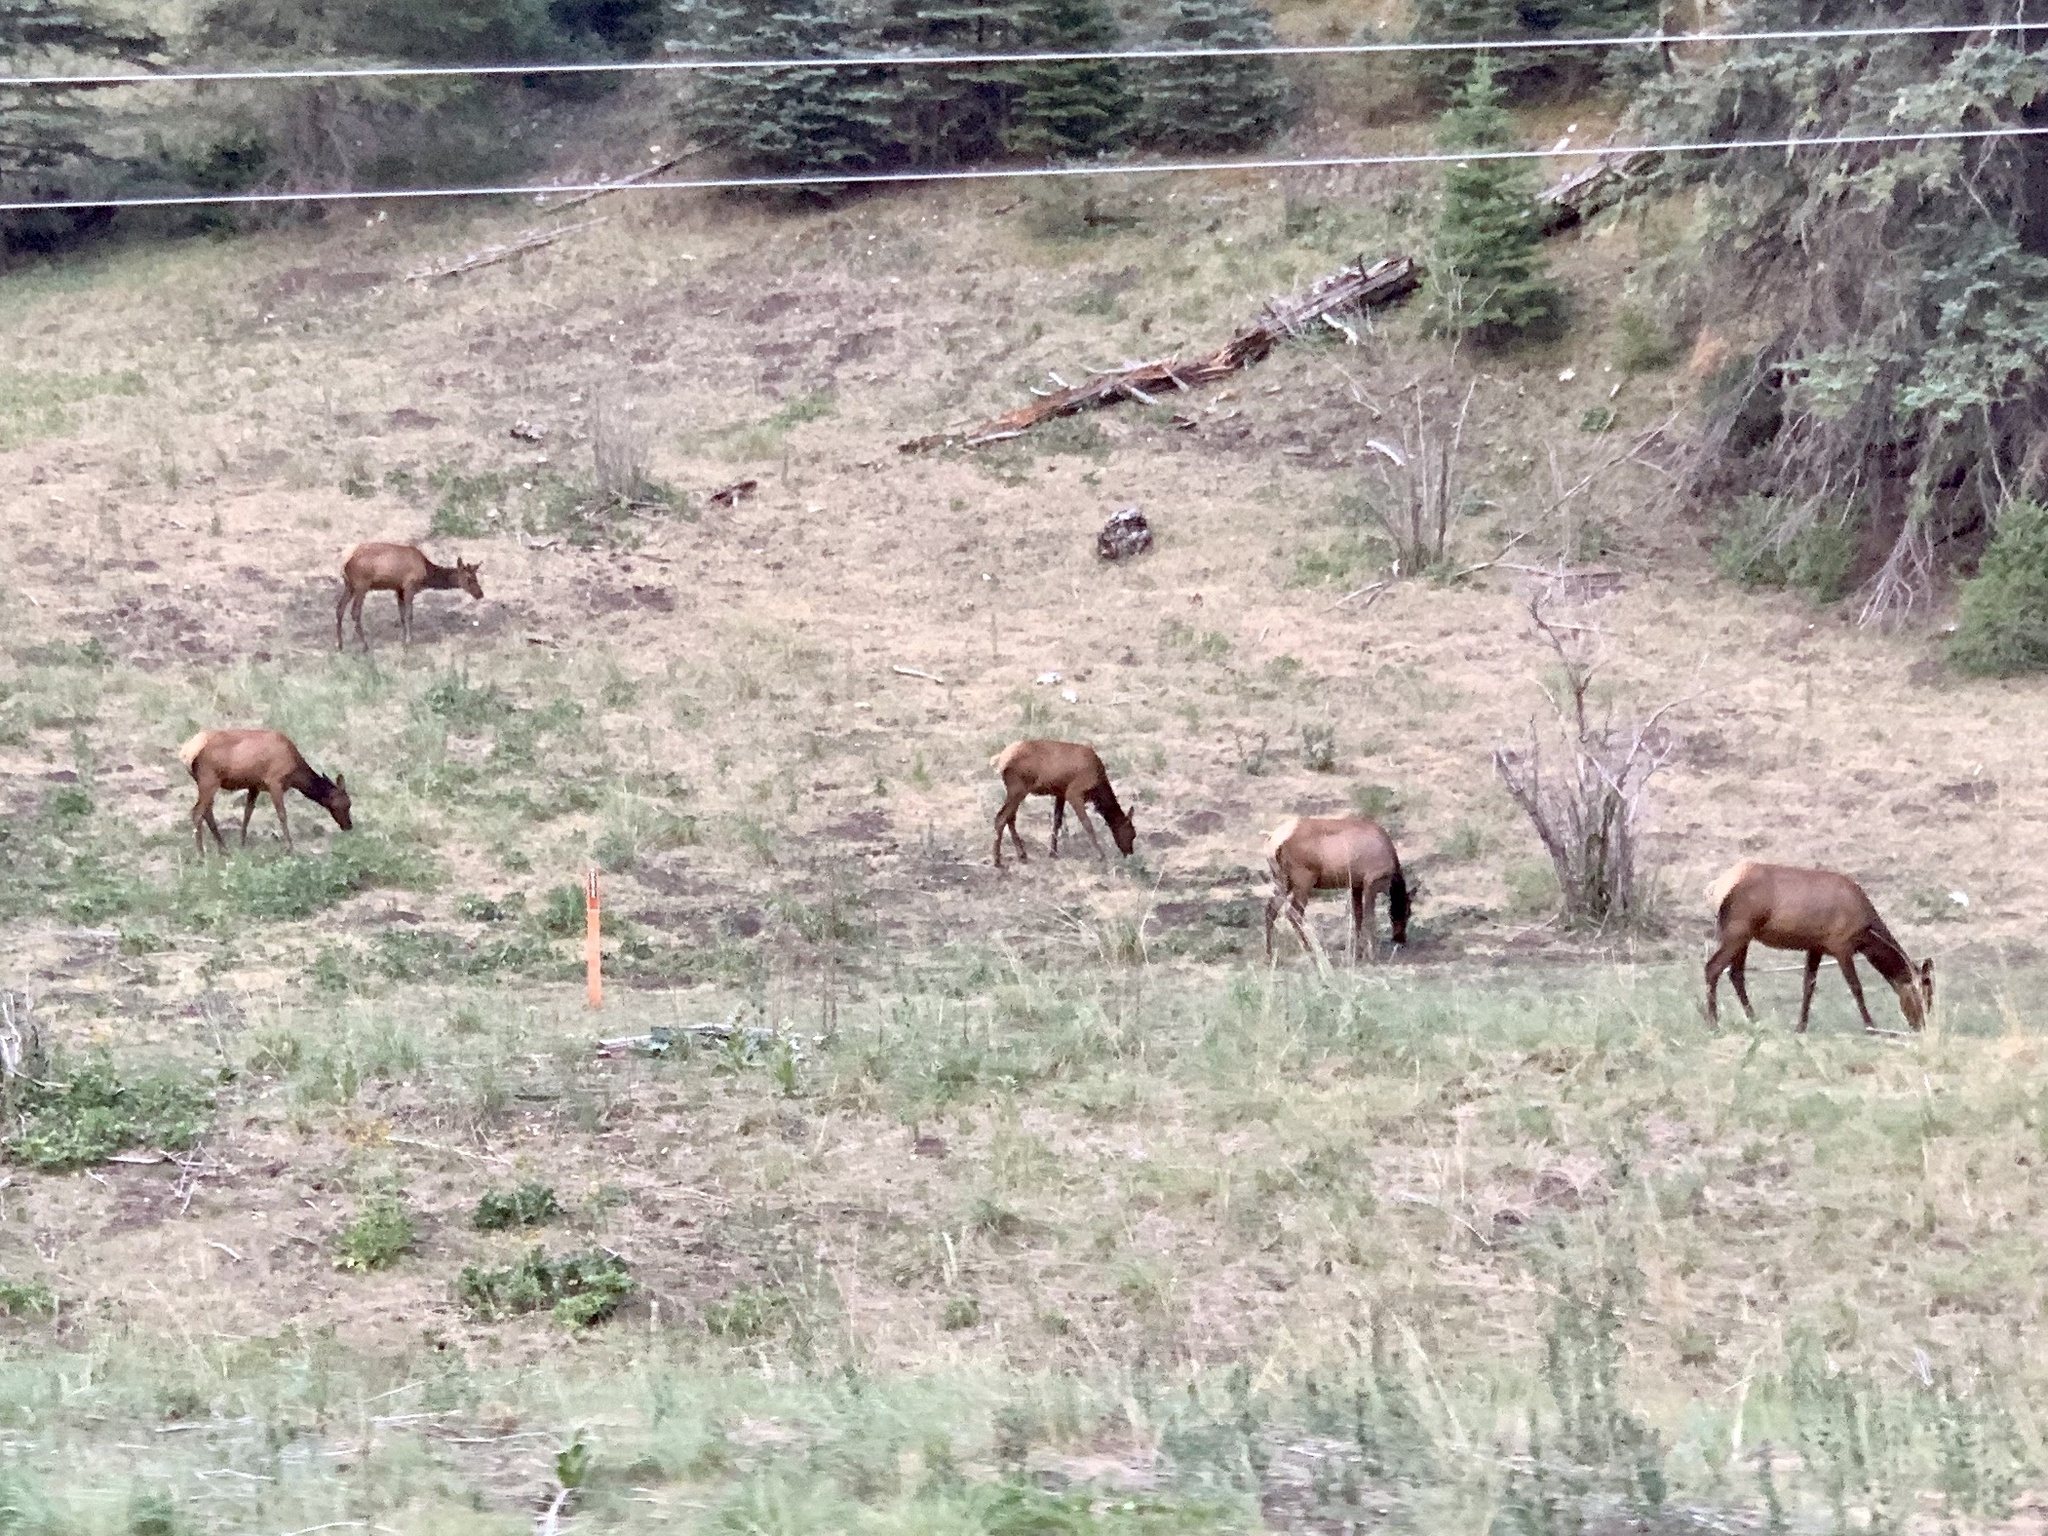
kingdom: Animalia
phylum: Chordata
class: Mammalia
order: Artiodactyla
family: Cervidae
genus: Cervus
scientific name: Cervus elaphus
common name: Red deer
